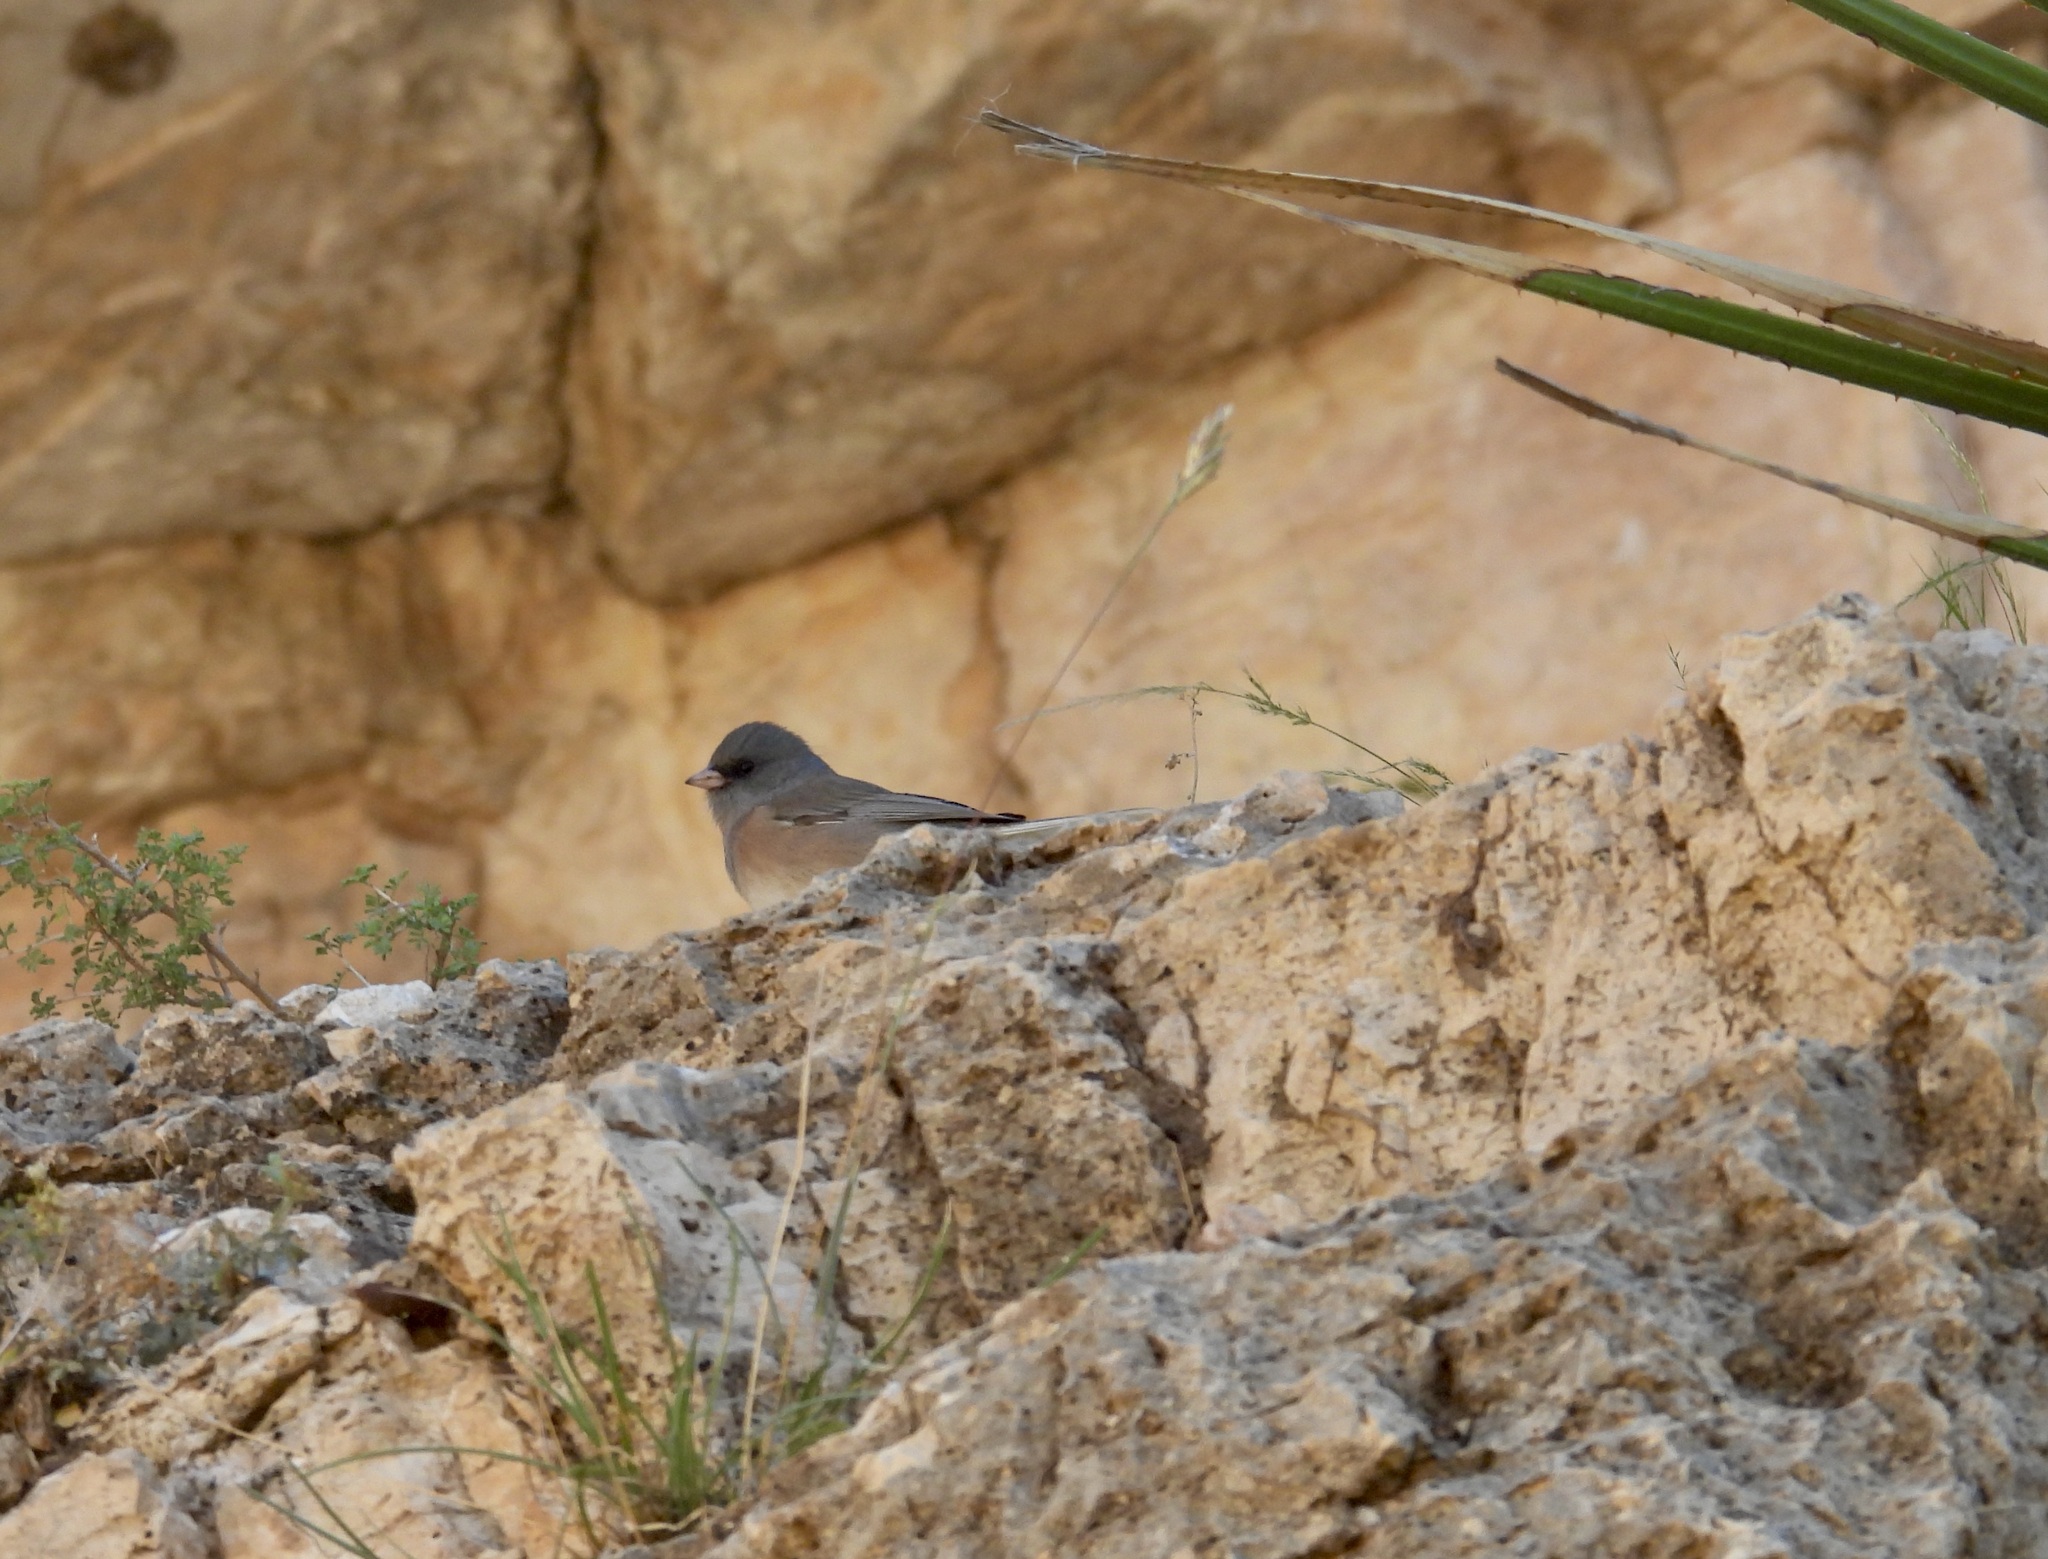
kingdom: Animalia
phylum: Chordata
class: Aves
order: Passeriformes
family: Passerellidae
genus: Junco
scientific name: Junco hyemalis
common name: Dark-eyed junco
